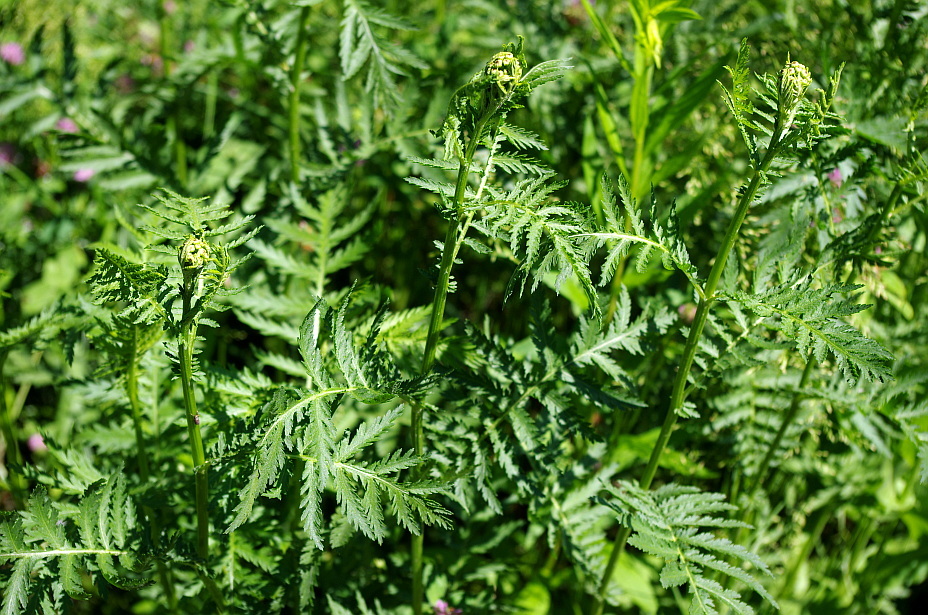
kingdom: Plantae
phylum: Tracheophyta
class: Magnoliopsida
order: Asterales
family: Asteraceae
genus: Tanacetum
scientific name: Tanacetum vulgare
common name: Common tansy
